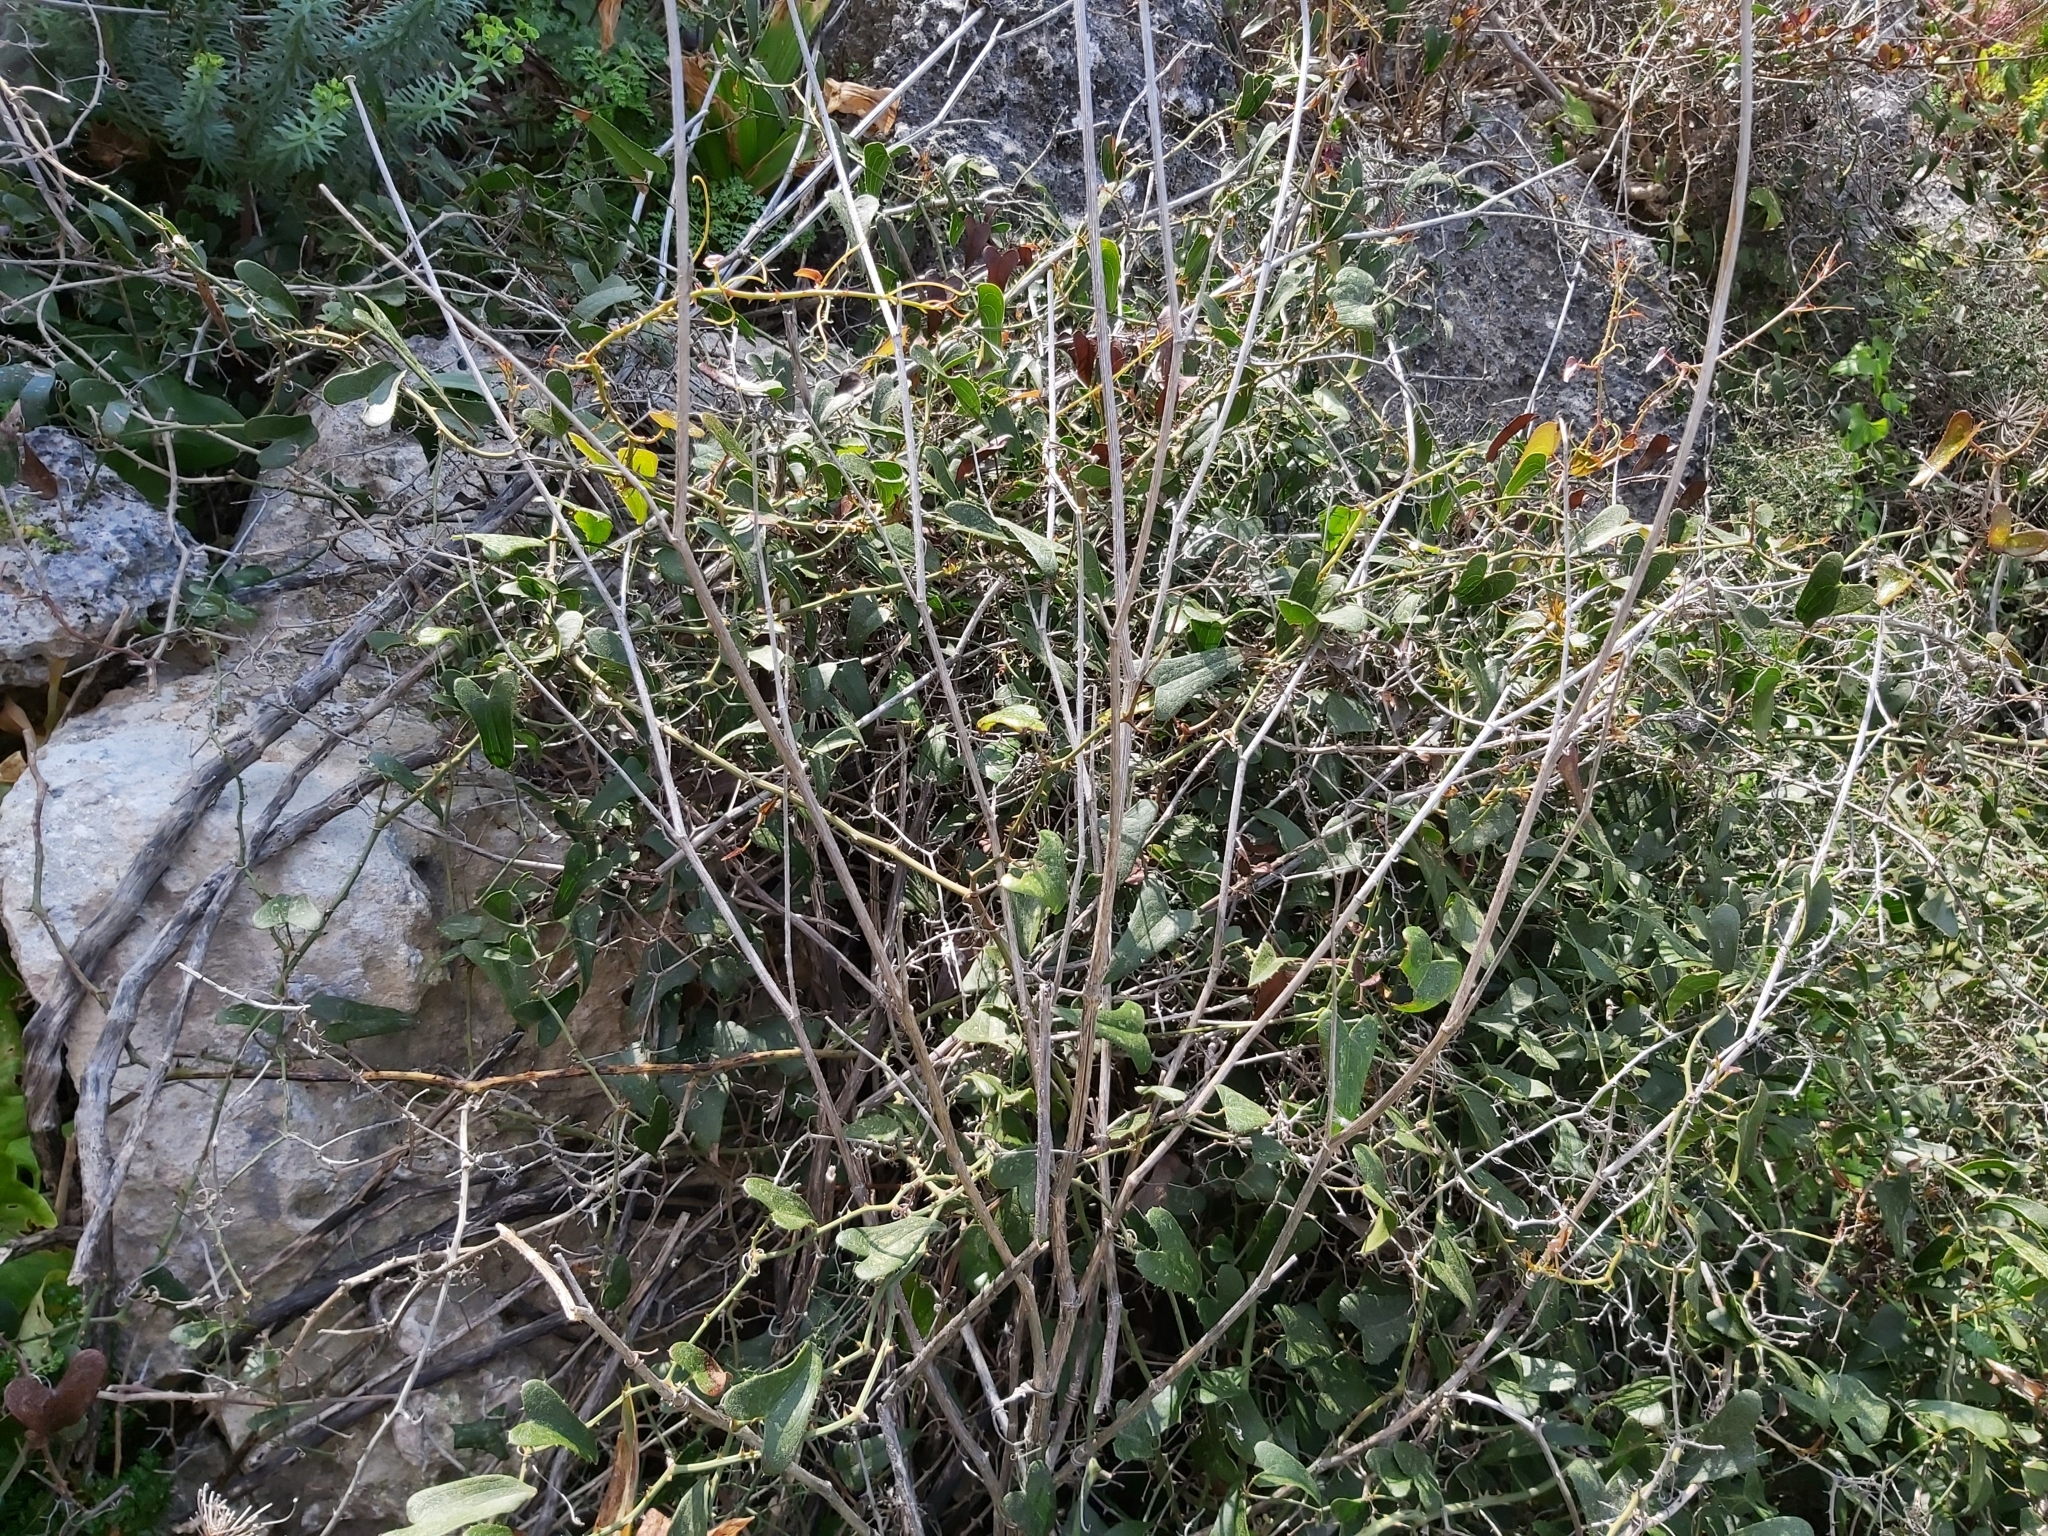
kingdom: Plantae
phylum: Tracheophyta
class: Liliopsida
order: Liliales
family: Smilacaceae
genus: Smilax
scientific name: Smilax aspera
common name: Common smilax
